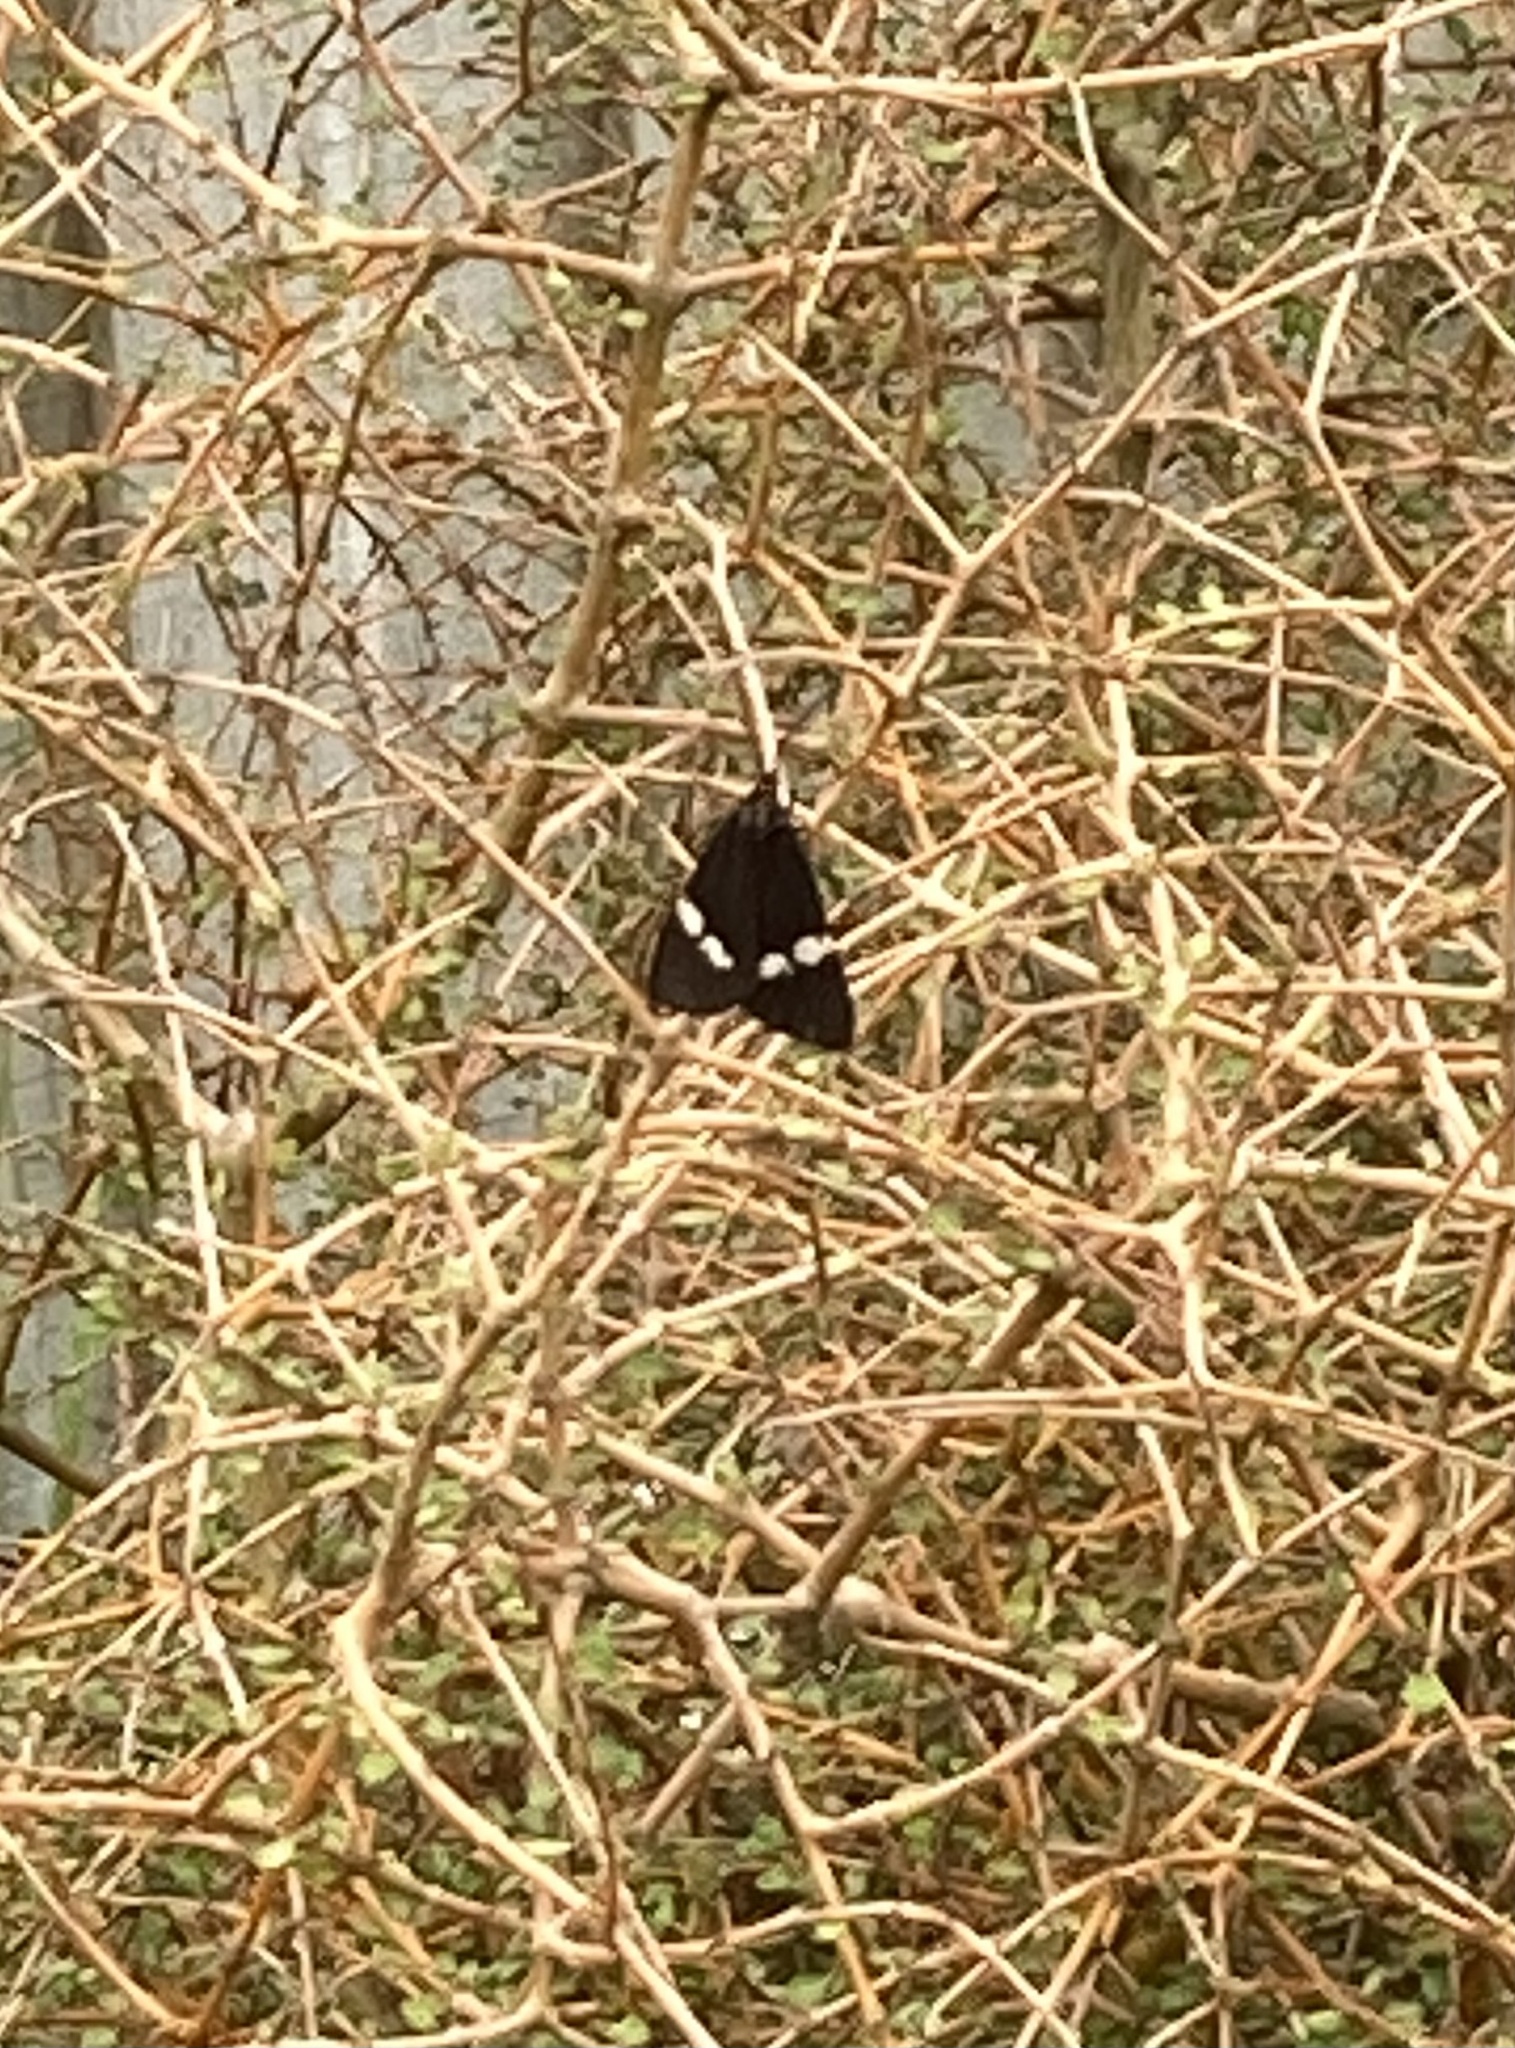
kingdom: Animalia
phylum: Arthropoda
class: Insecta
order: Lepidoptera
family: Erebidae
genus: Nyctemera
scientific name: Nyctemera annulatum
